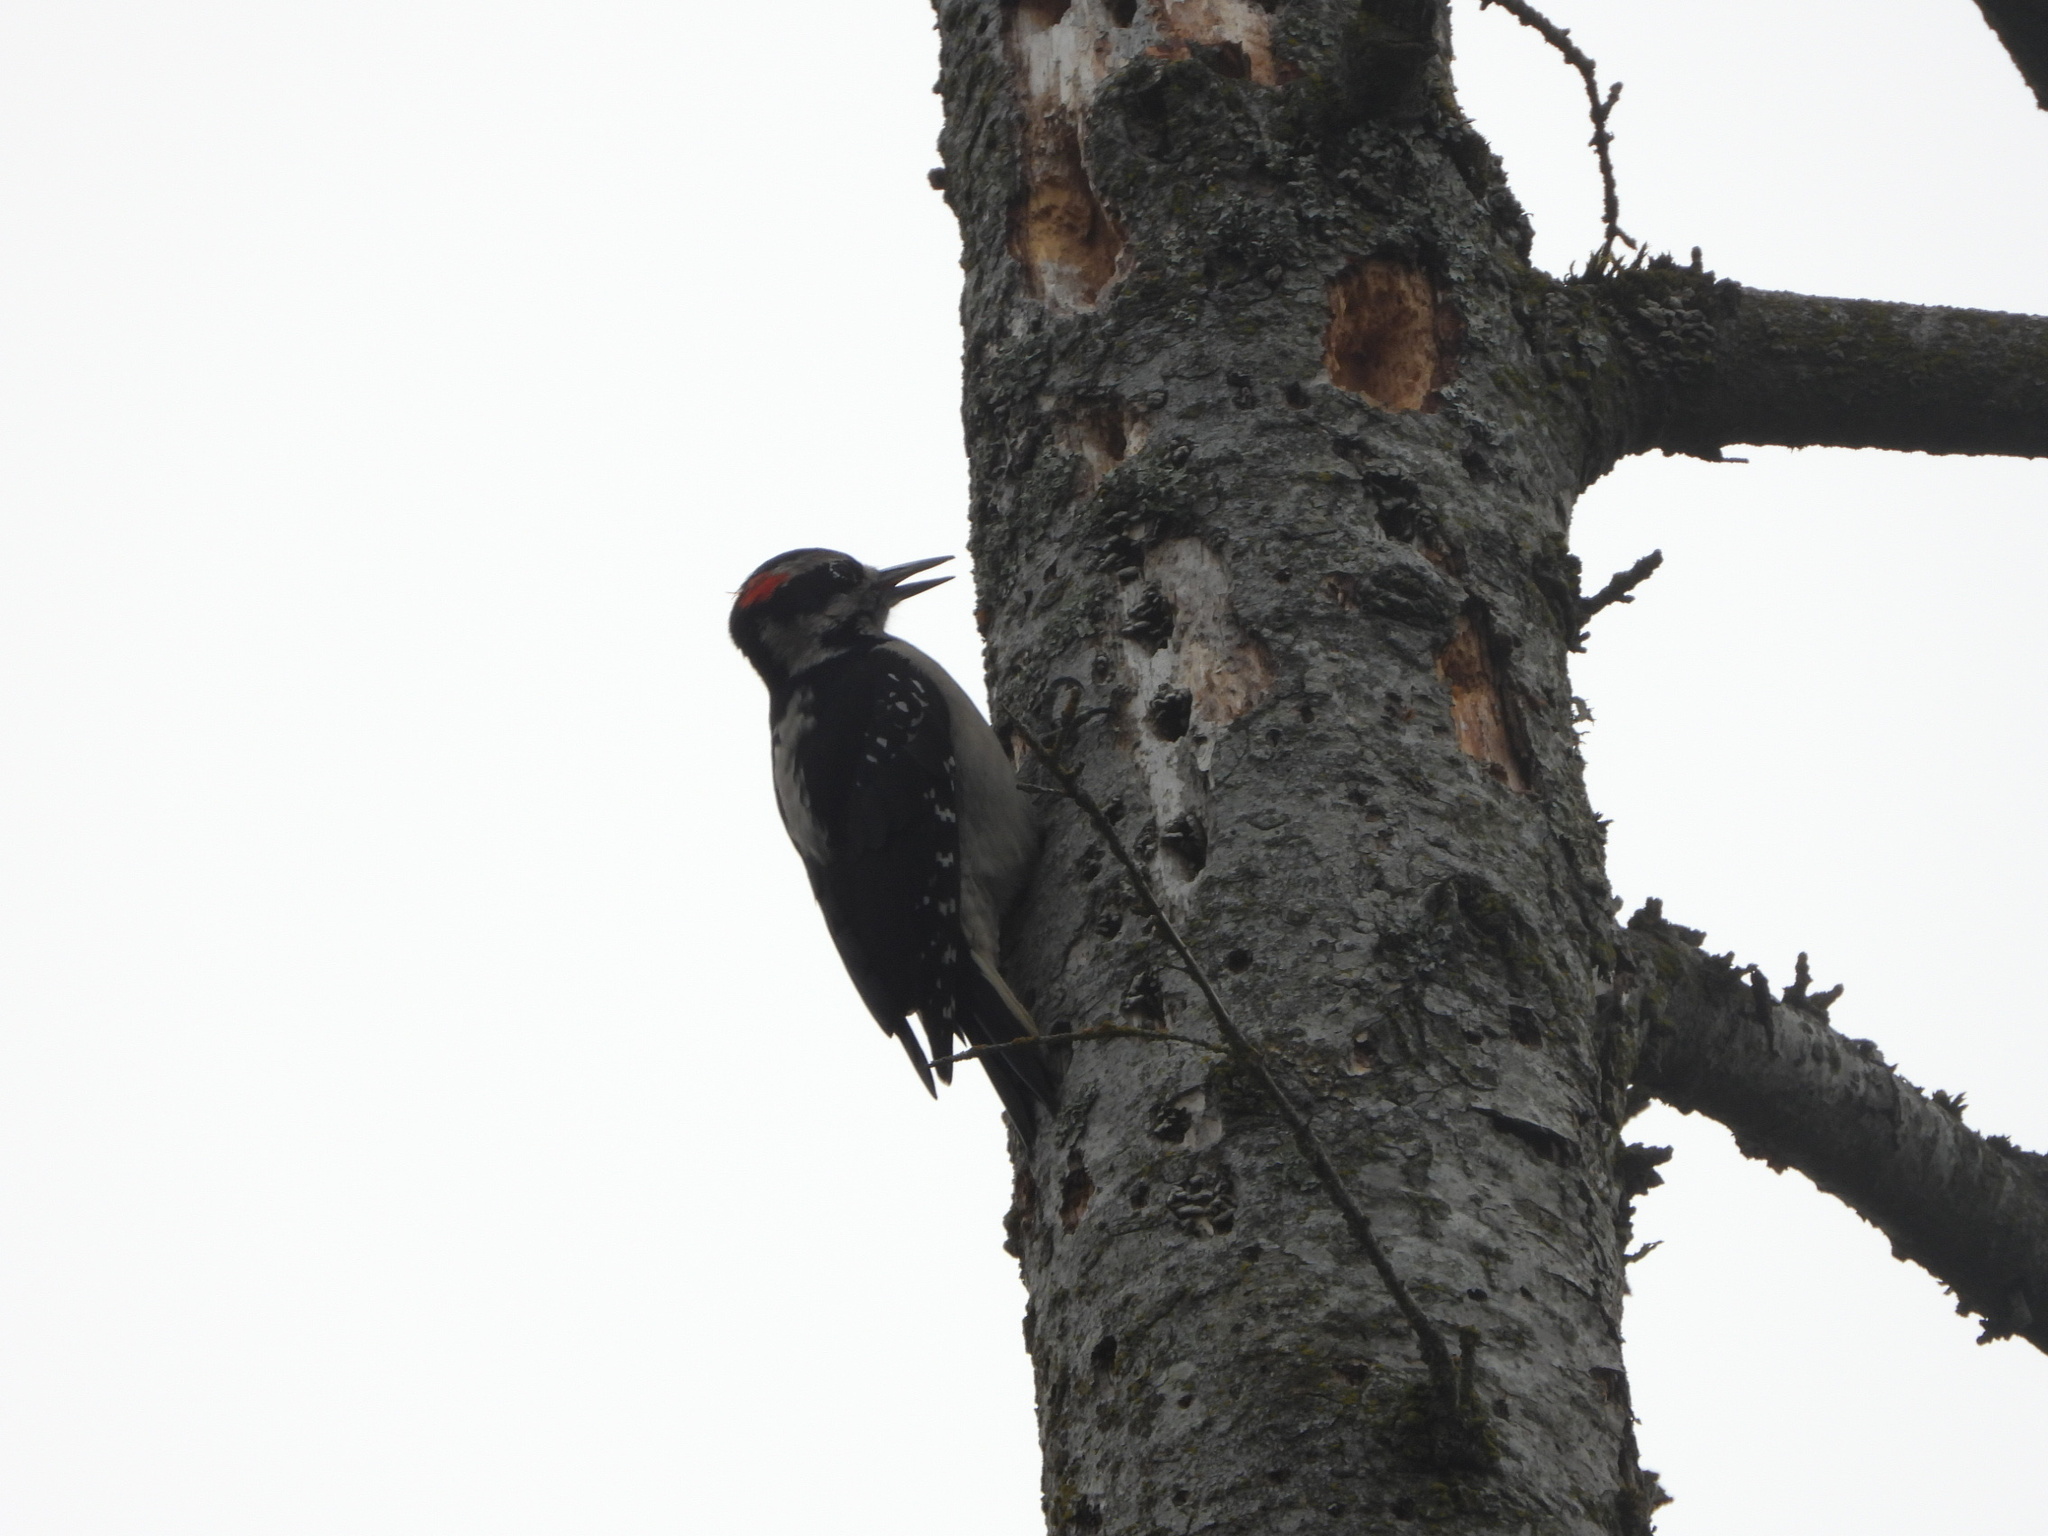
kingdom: Animalia
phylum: Chordata
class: Aves
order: Piciformes
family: Picidae
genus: Leuconotopicus
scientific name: Leuconotopicus villosus
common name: Hairy woodpecker
